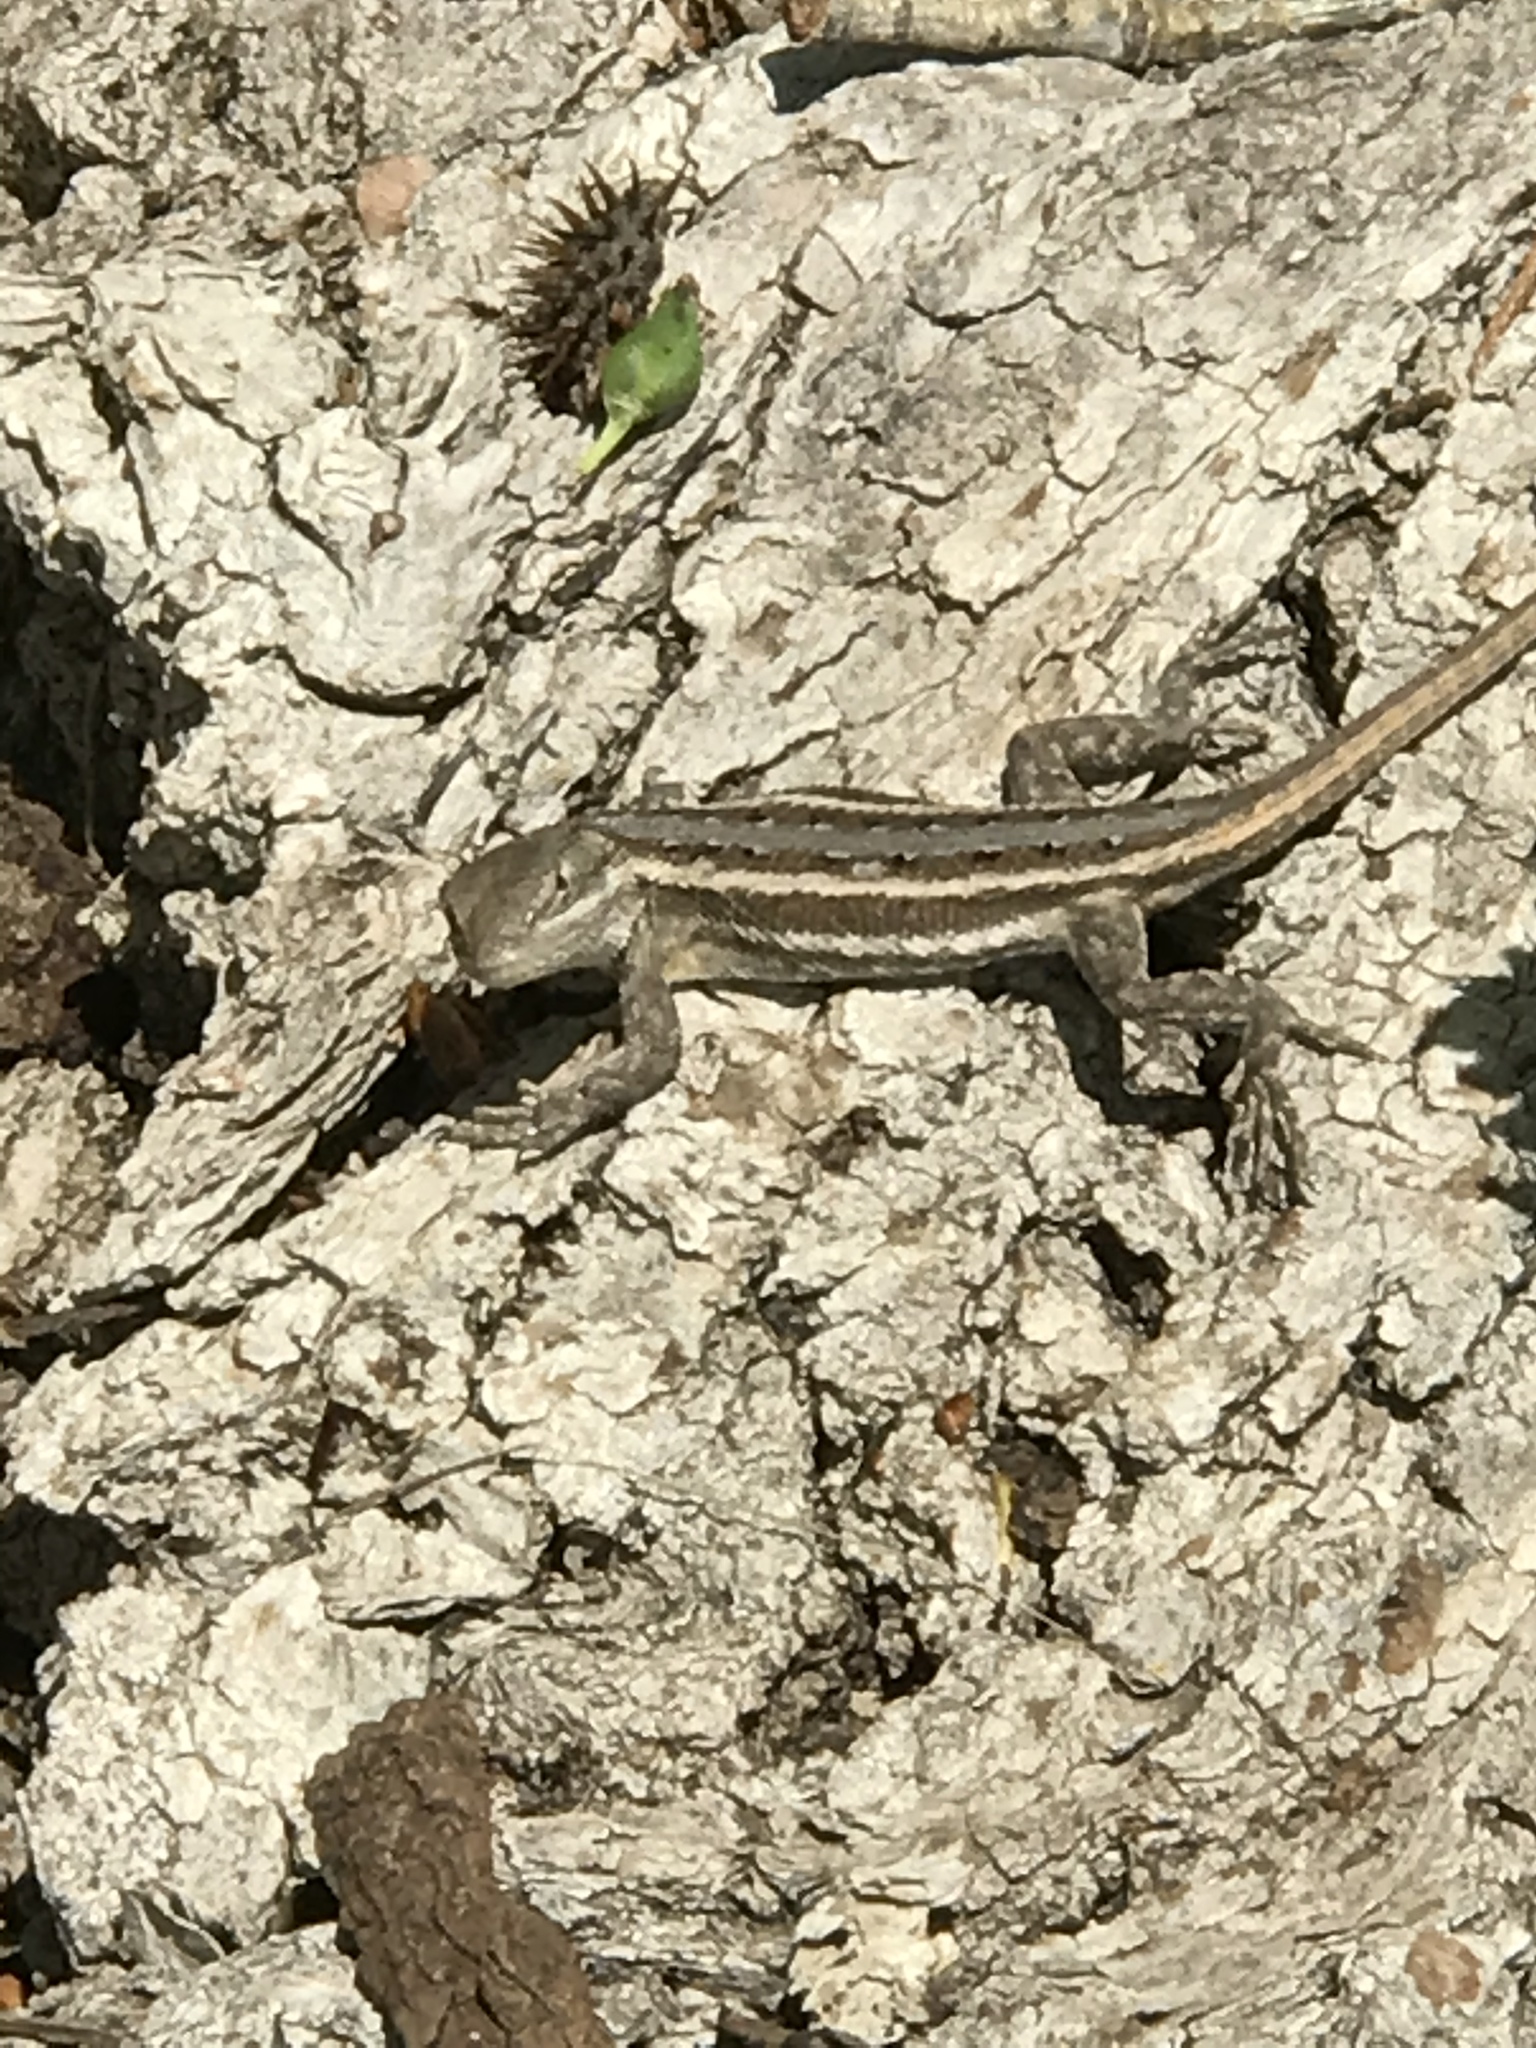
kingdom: Animalia
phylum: Chordata
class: Squamata
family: Phrynosomatidae
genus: Sceloporus
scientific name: Sceloporus consobrinus
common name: Southern prairie lizard
